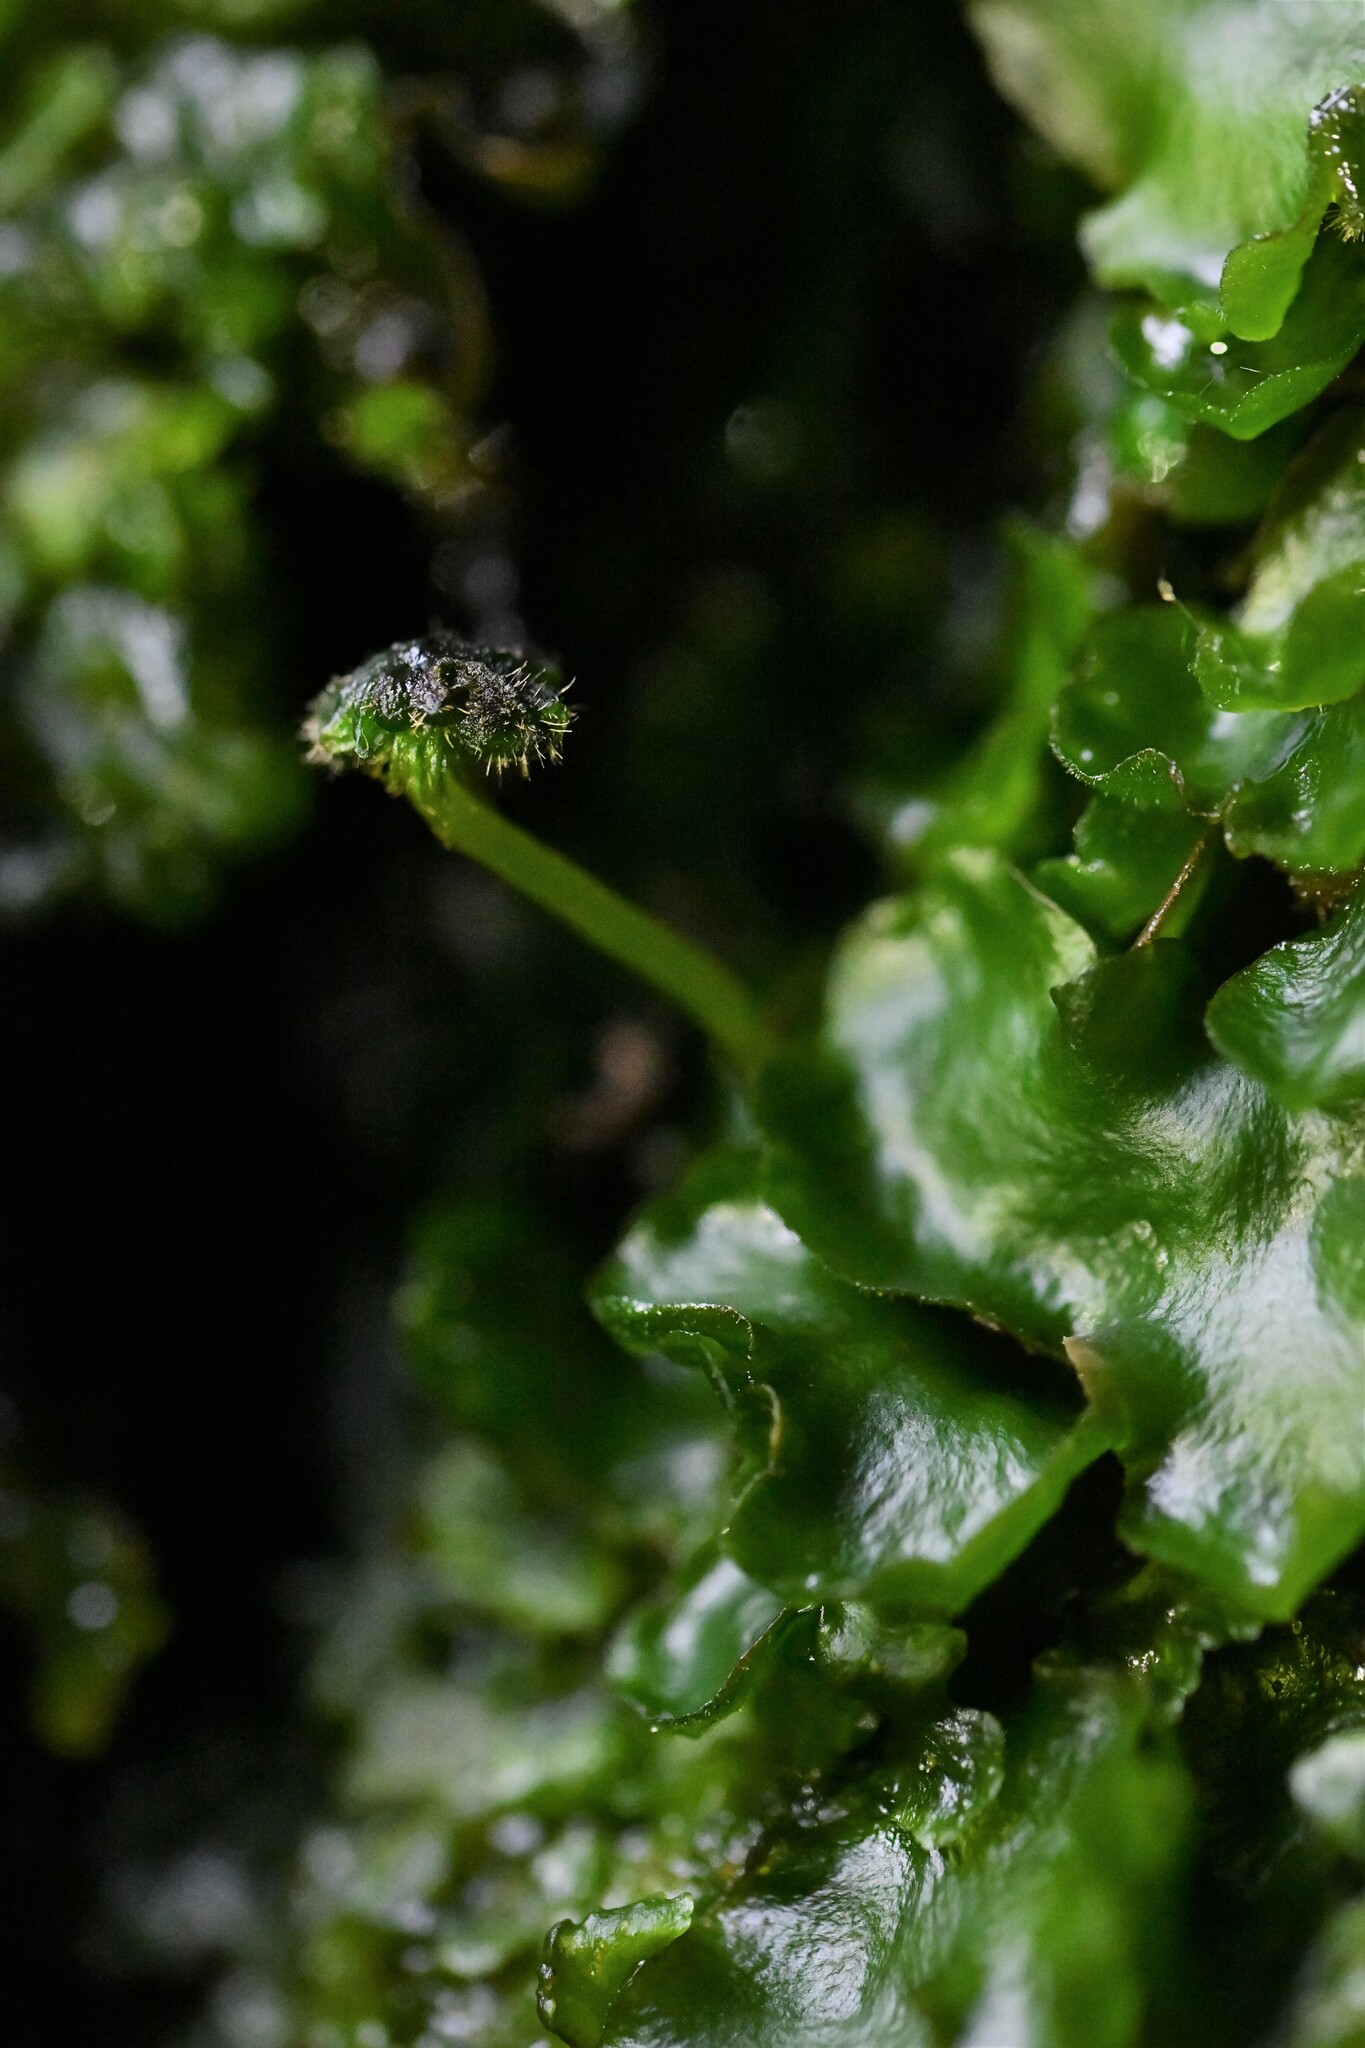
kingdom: Plantae
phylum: Marchantiophyta
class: Marchantiopsida
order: Marchantiales
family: Dumortieraceae
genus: Dumortiera
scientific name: Dumortiera hirsuta
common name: Dumortier's liverwort
